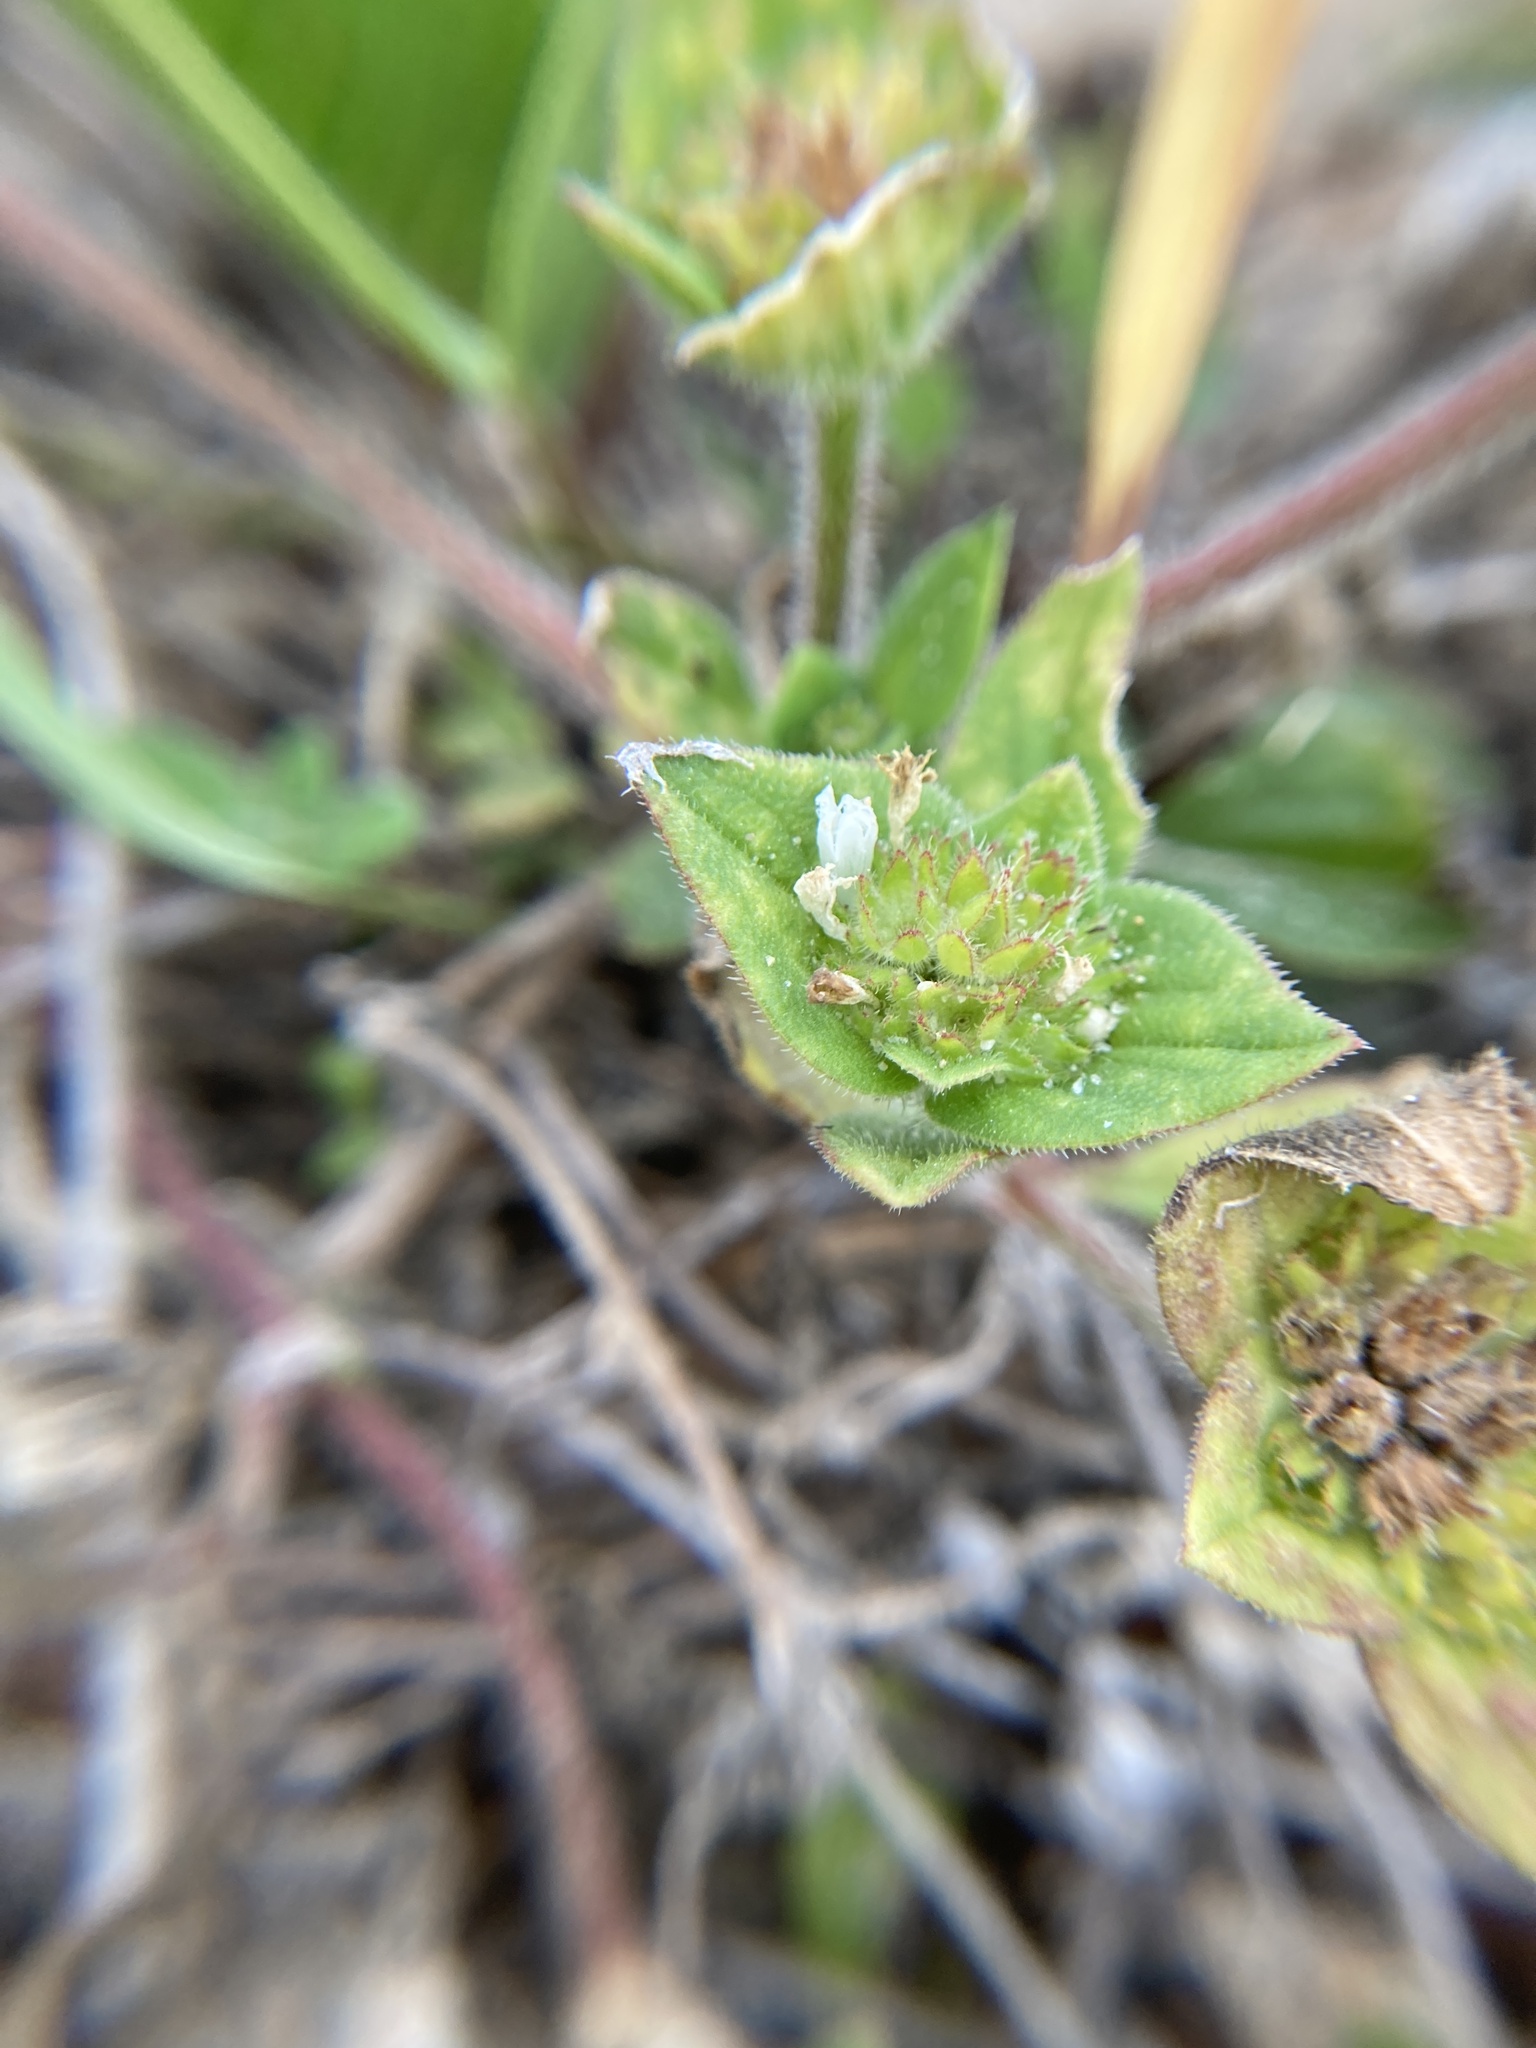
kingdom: Plantae
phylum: Tracheophyta
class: Magnoliopsida
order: Gentianales
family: Rubiaceae
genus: Richardia
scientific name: Richardia brasiliensis
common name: Tropical mexican clover
